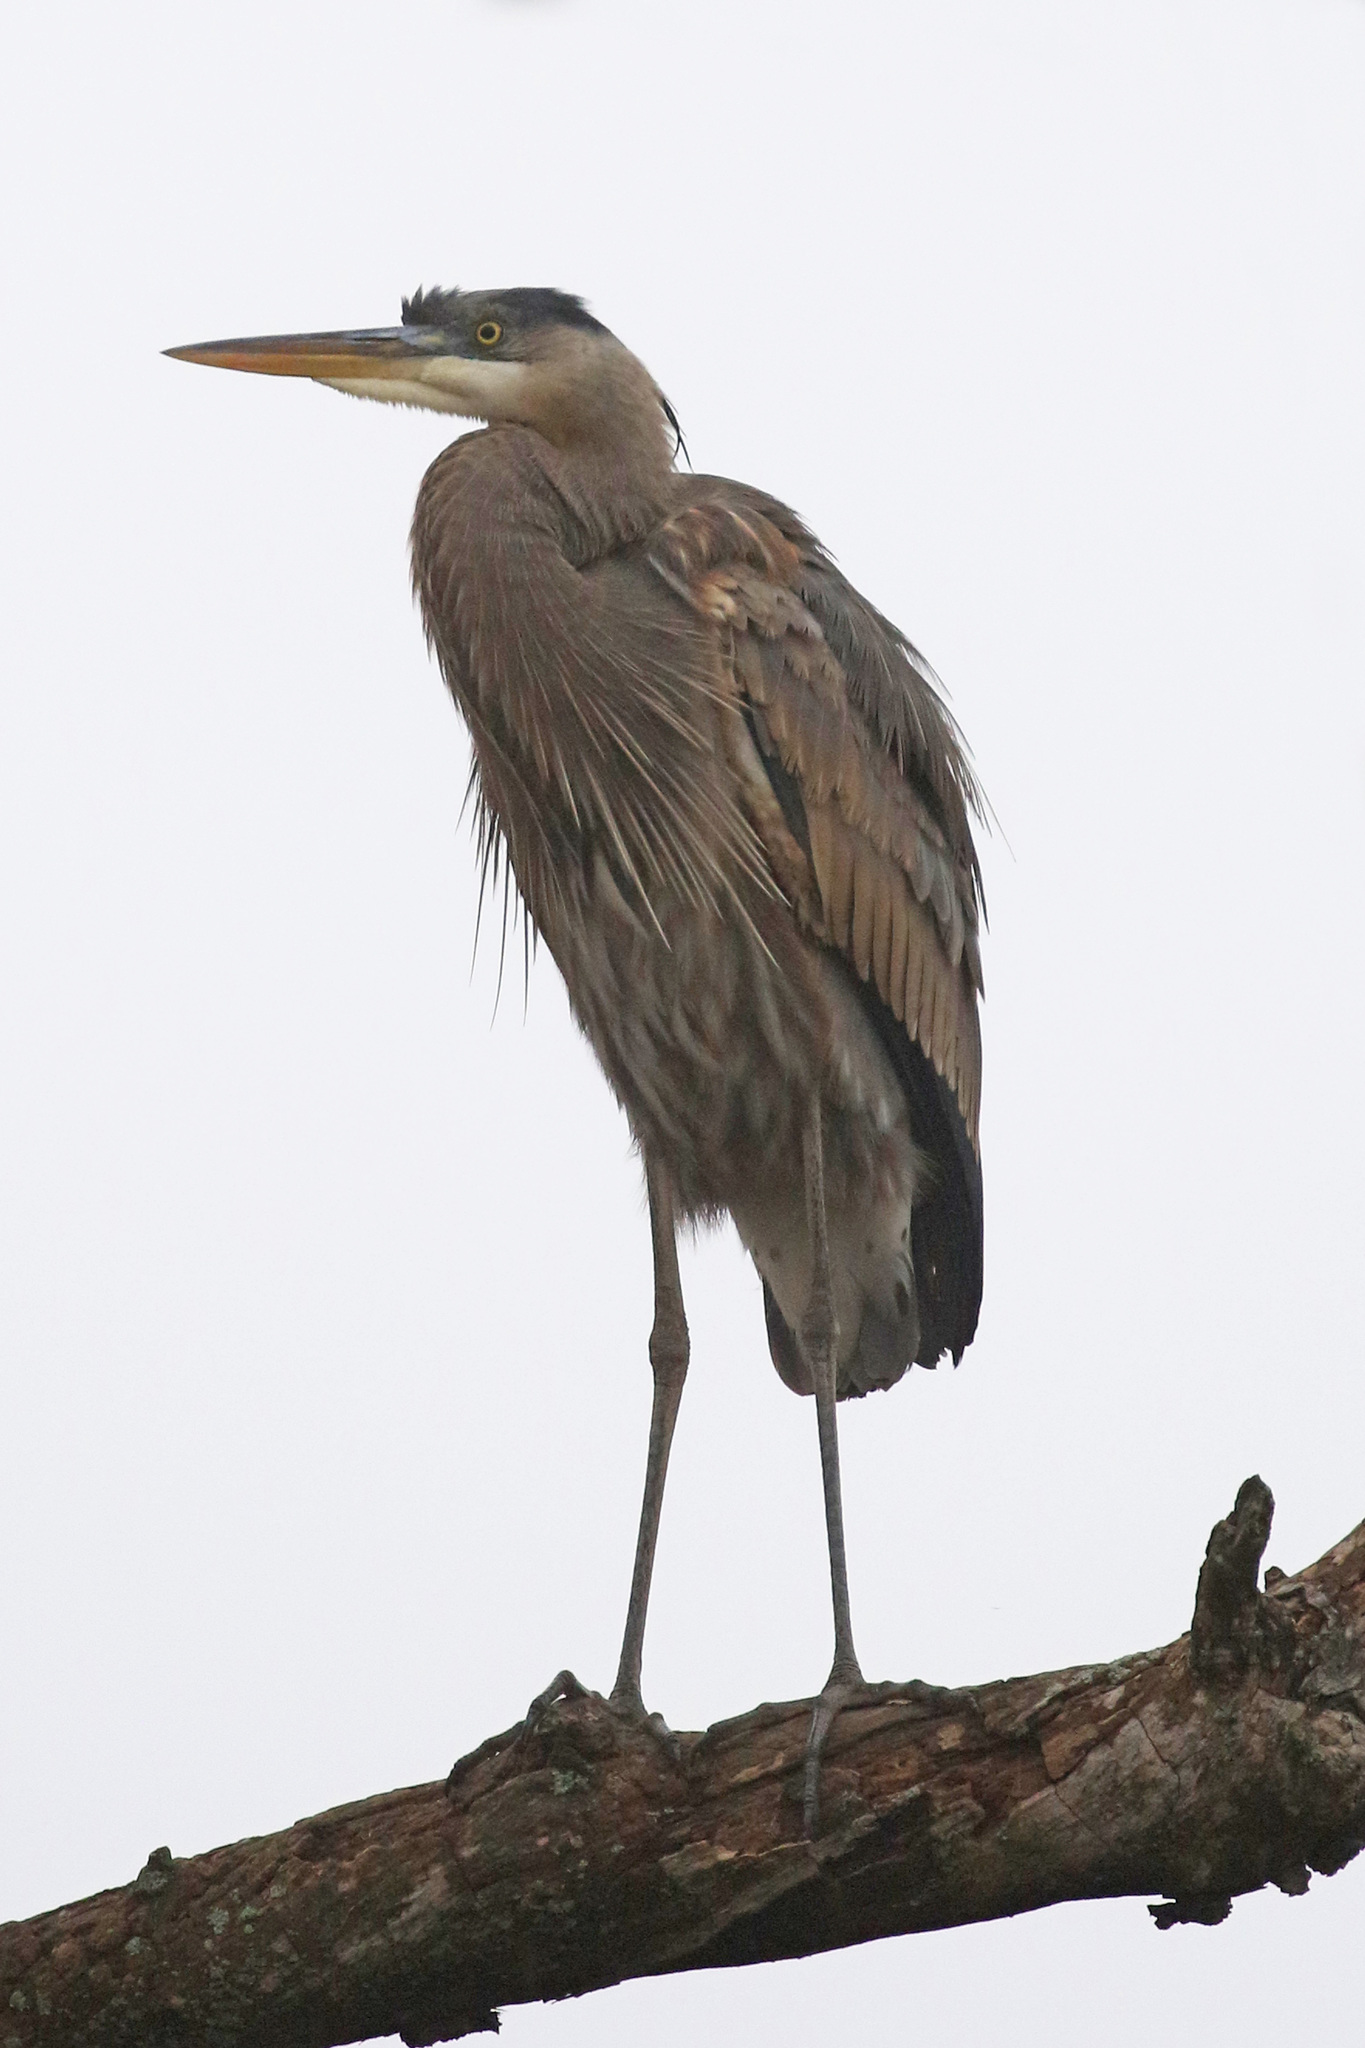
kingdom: Animalia
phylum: Chordata
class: Aves
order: Pelecaniformes
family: Ardeidae
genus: Ardea
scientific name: Ardea herodias
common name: Great blue heron
